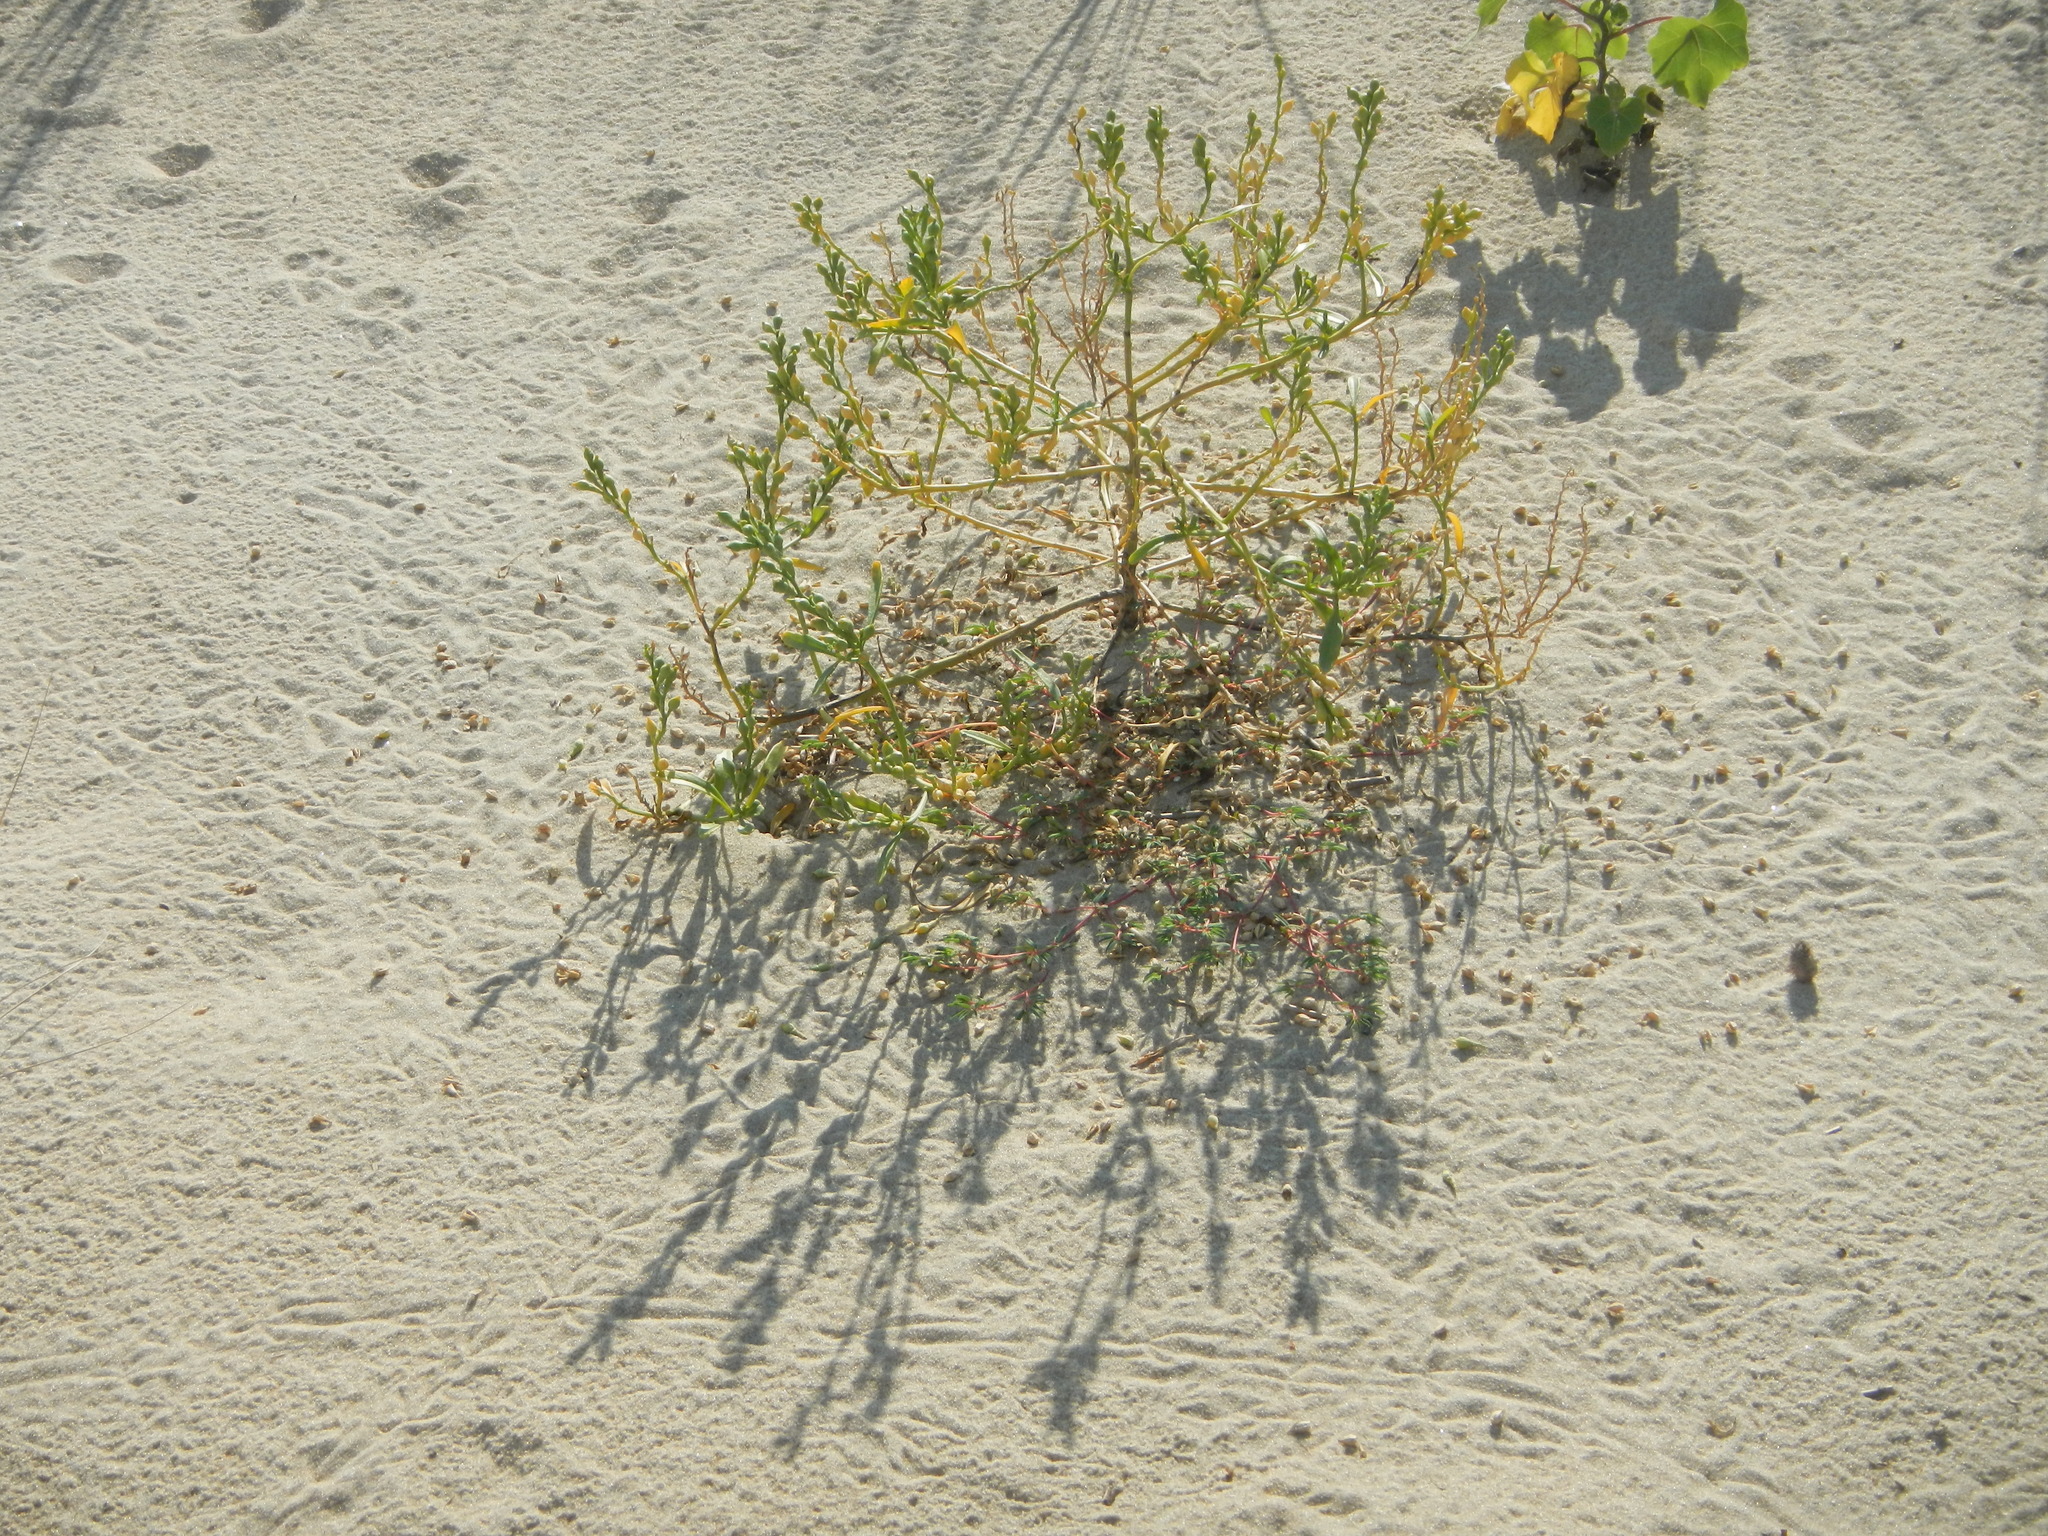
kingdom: Plantae
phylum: Tracheophyta
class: Magnoliopsida
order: Brassicales
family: Brassicaceae
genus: Cakile
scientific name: Cakile edentula
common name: American sea rocket
